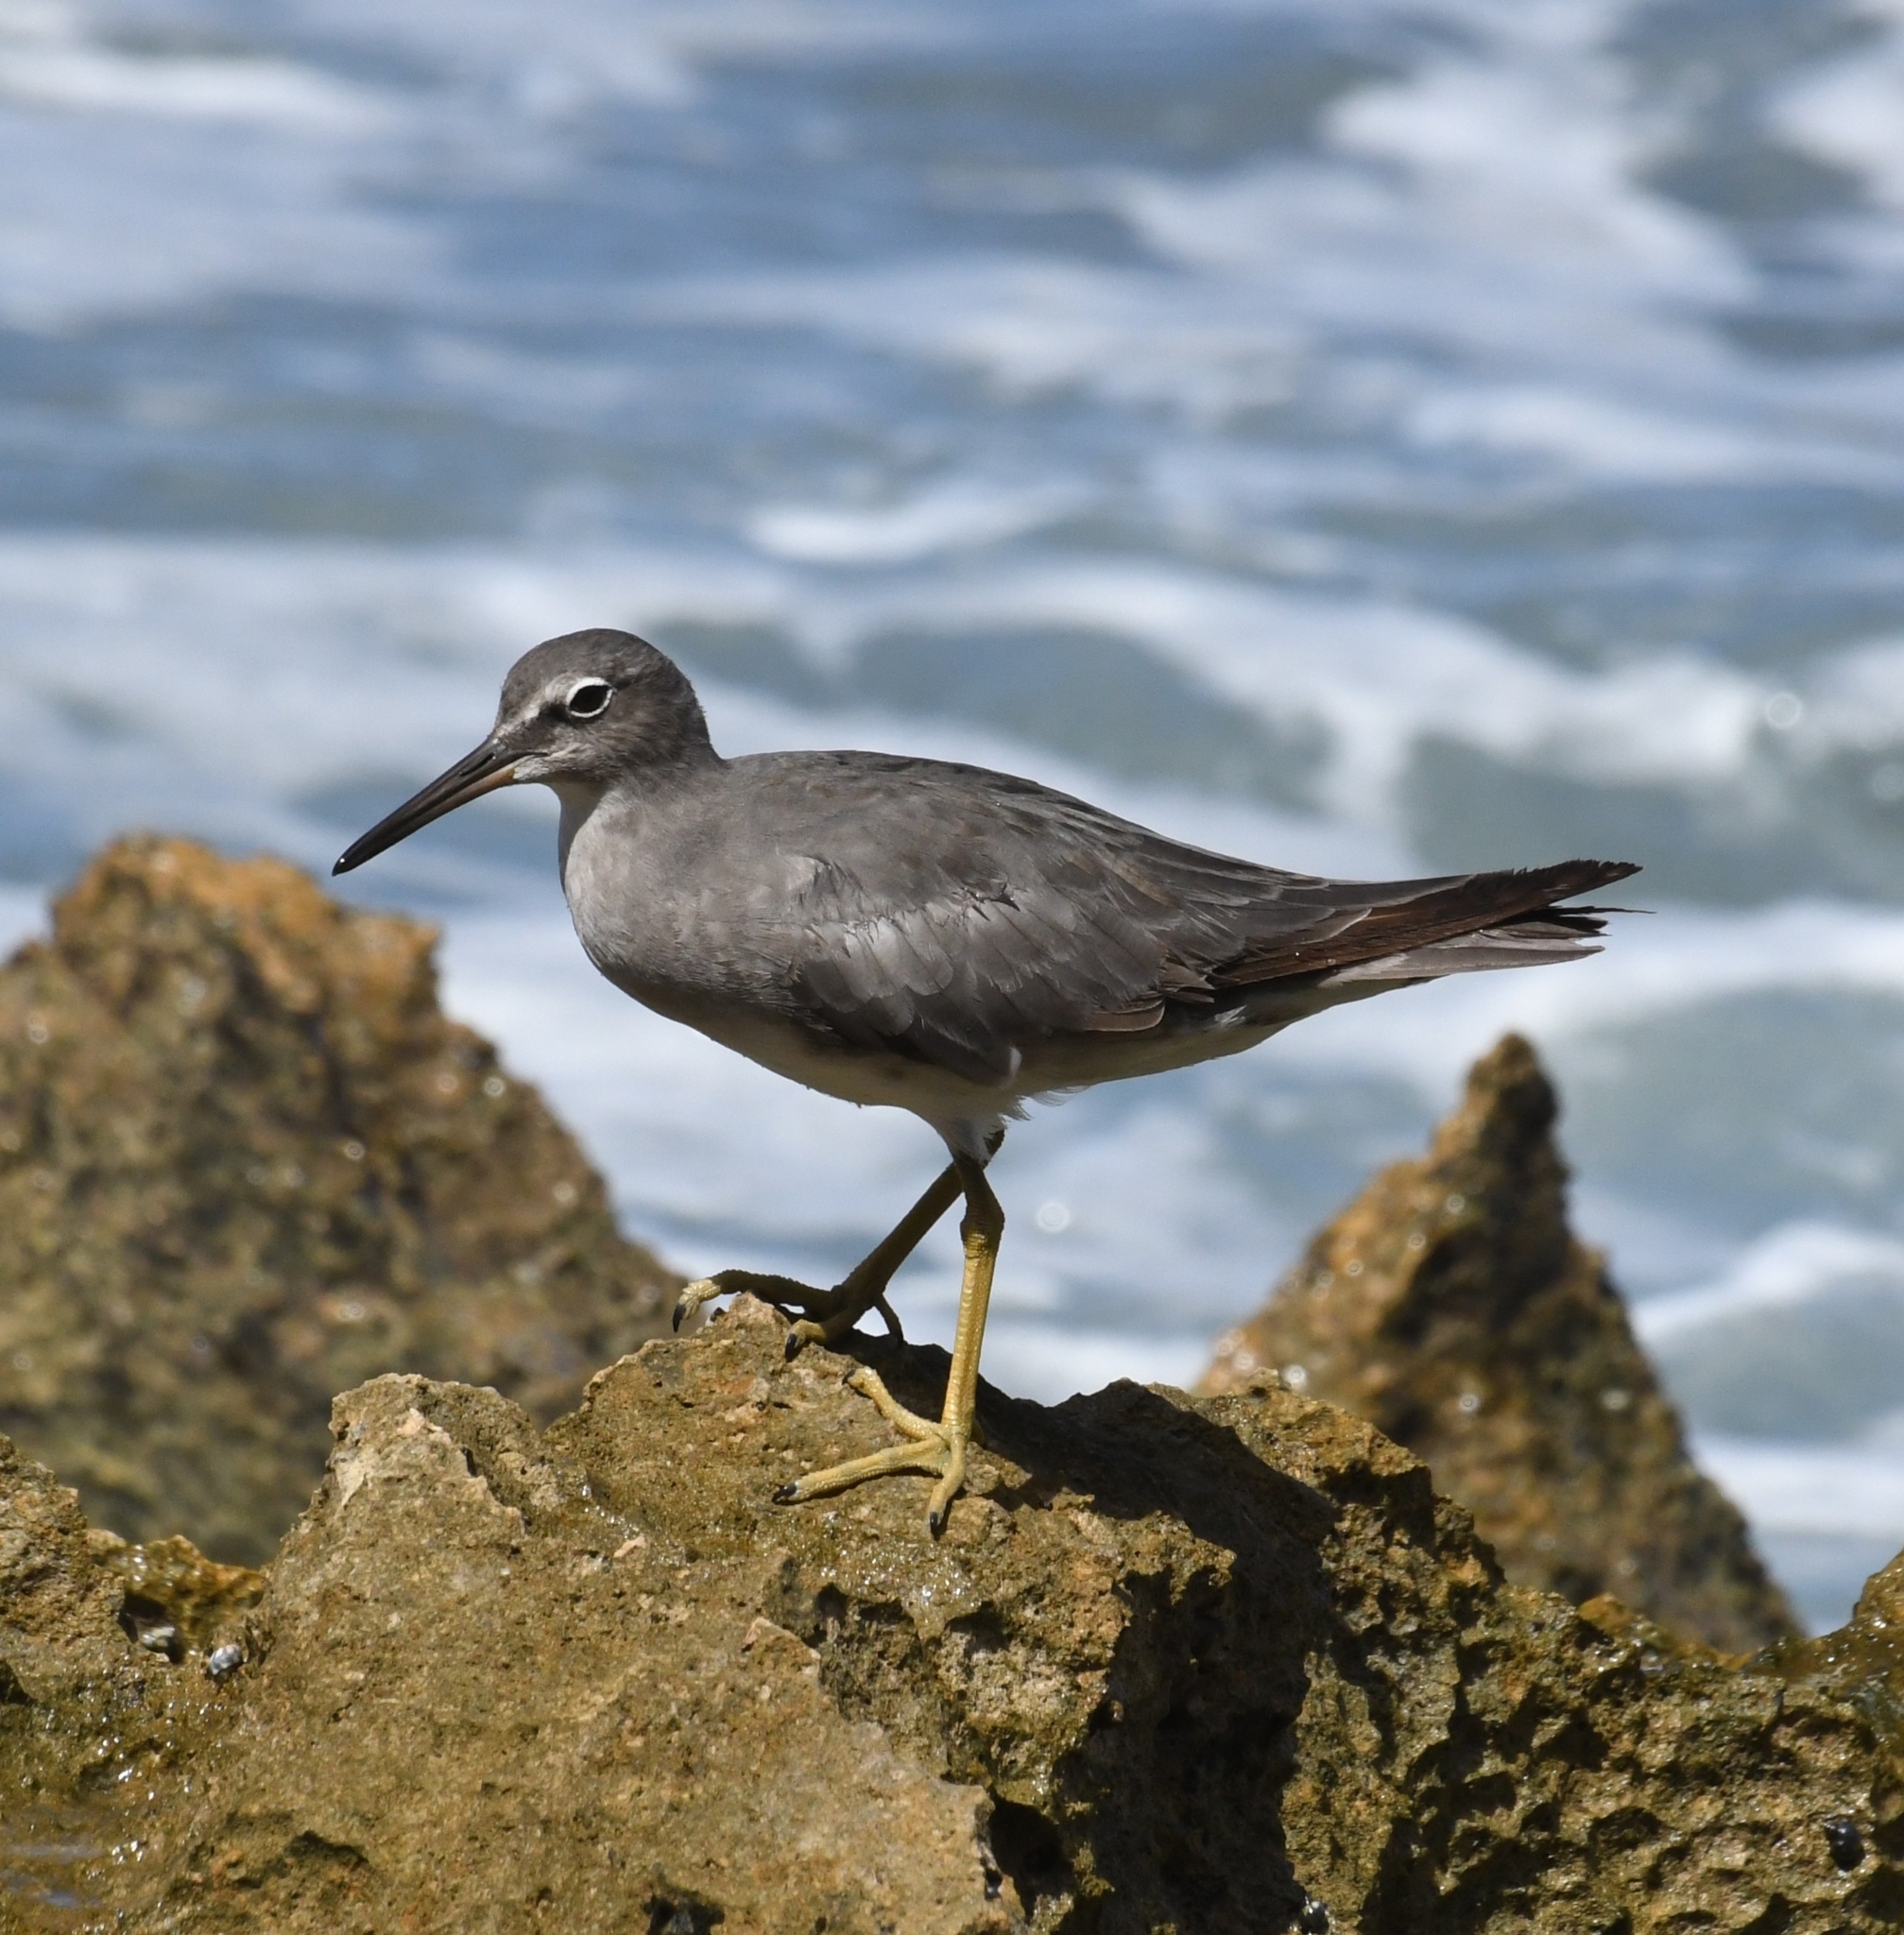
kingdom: Animalia
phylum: Chordata
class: Aves
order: Charadriiformes
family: Scolopacidae
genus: Tringa
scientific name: Tringa incana
